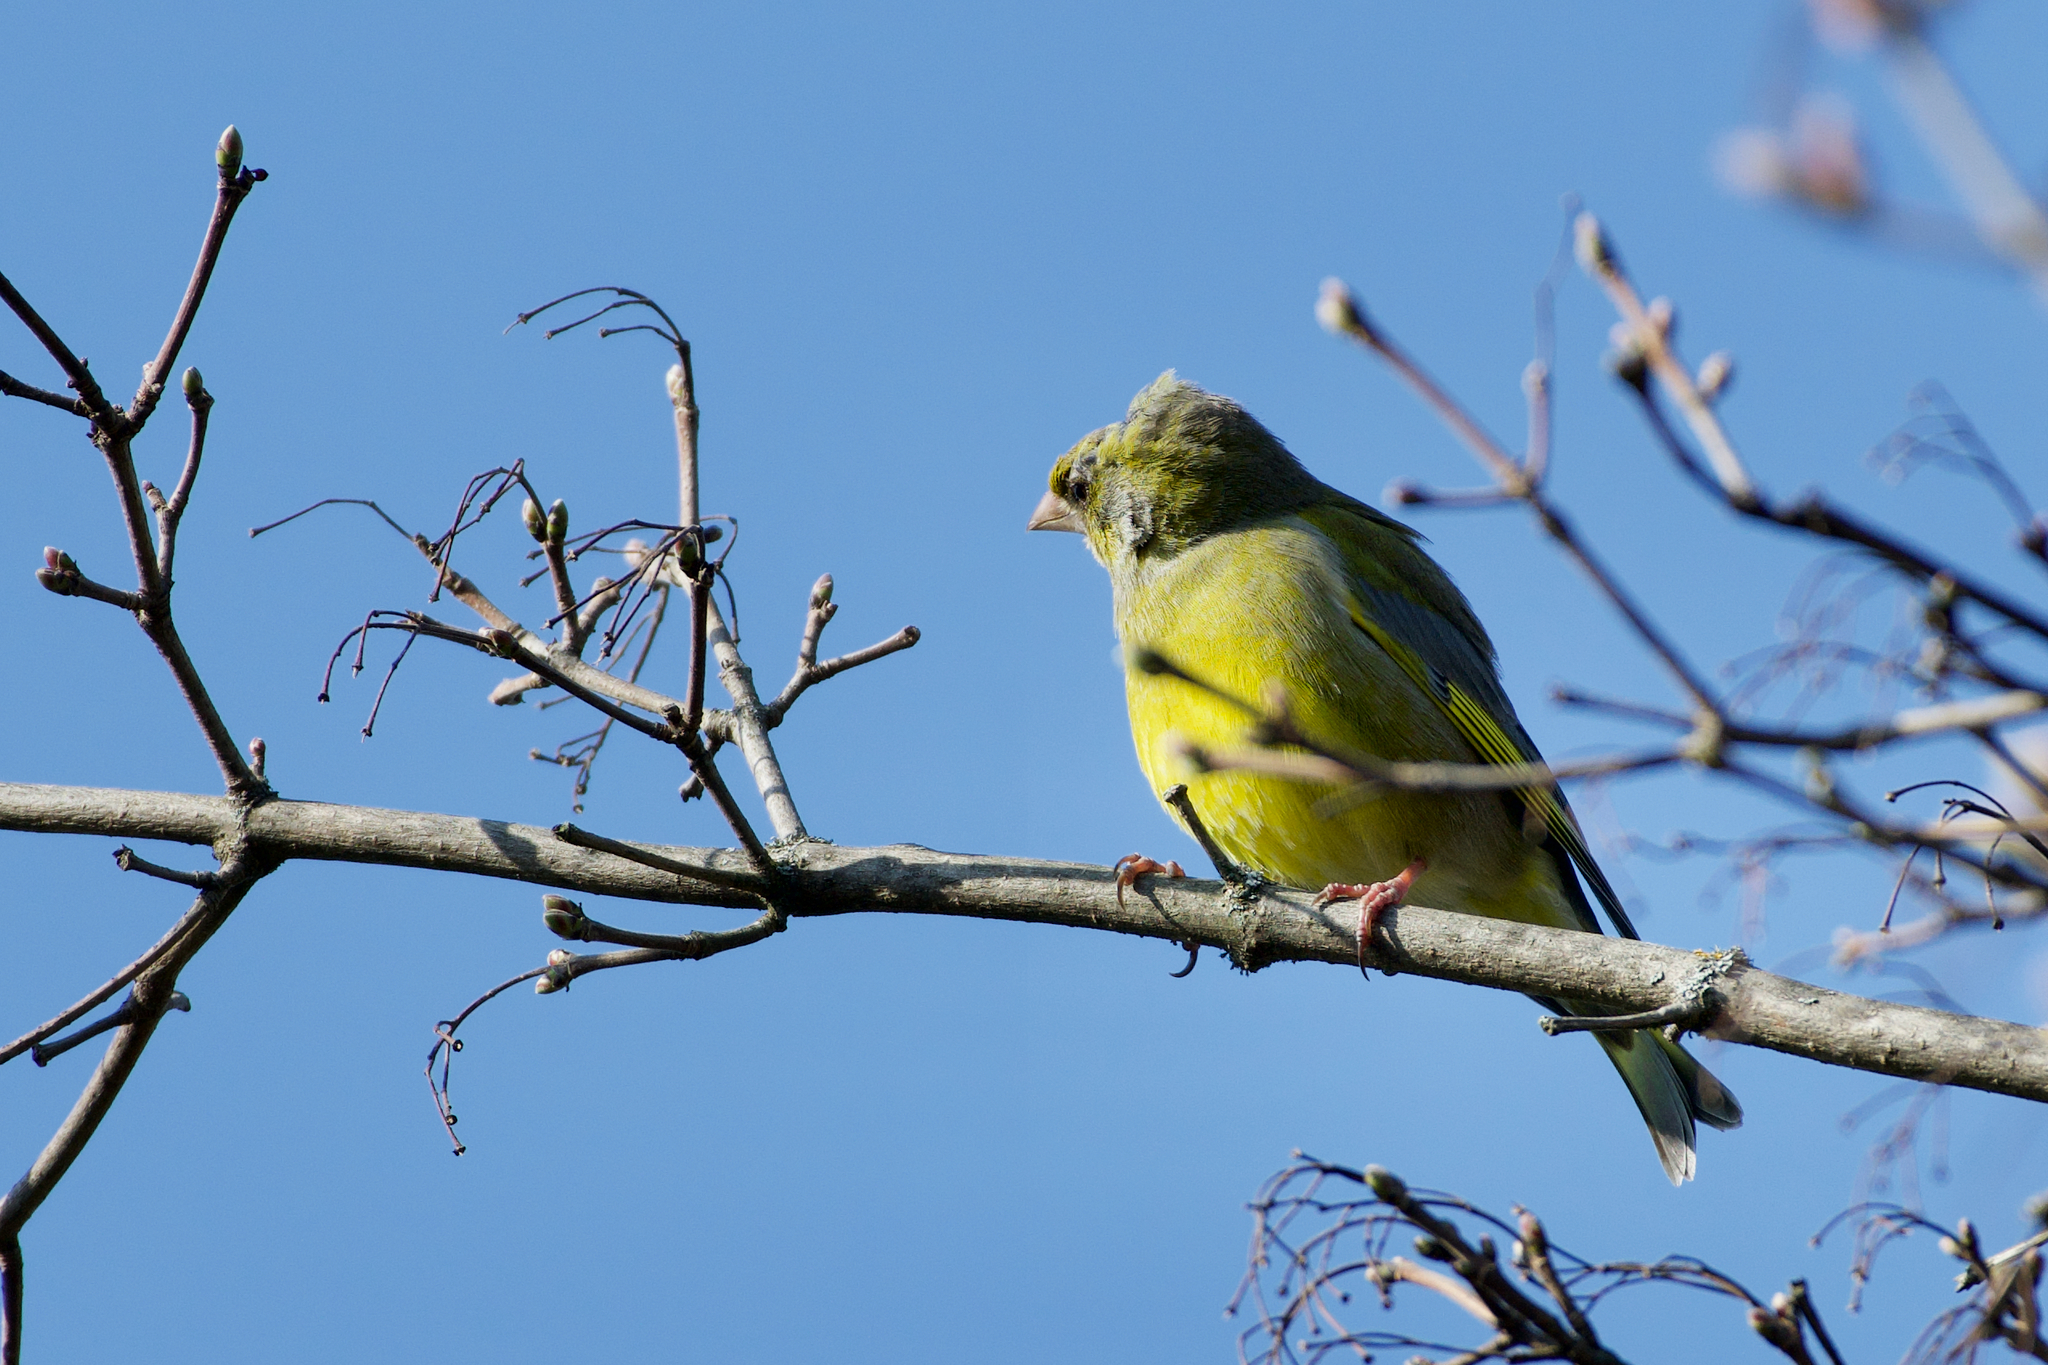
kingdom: Plantae
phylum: Tracheophyta
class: Liliopsida
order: Poales
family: Poaceae
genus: Chloris
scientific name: Chloris chloris
